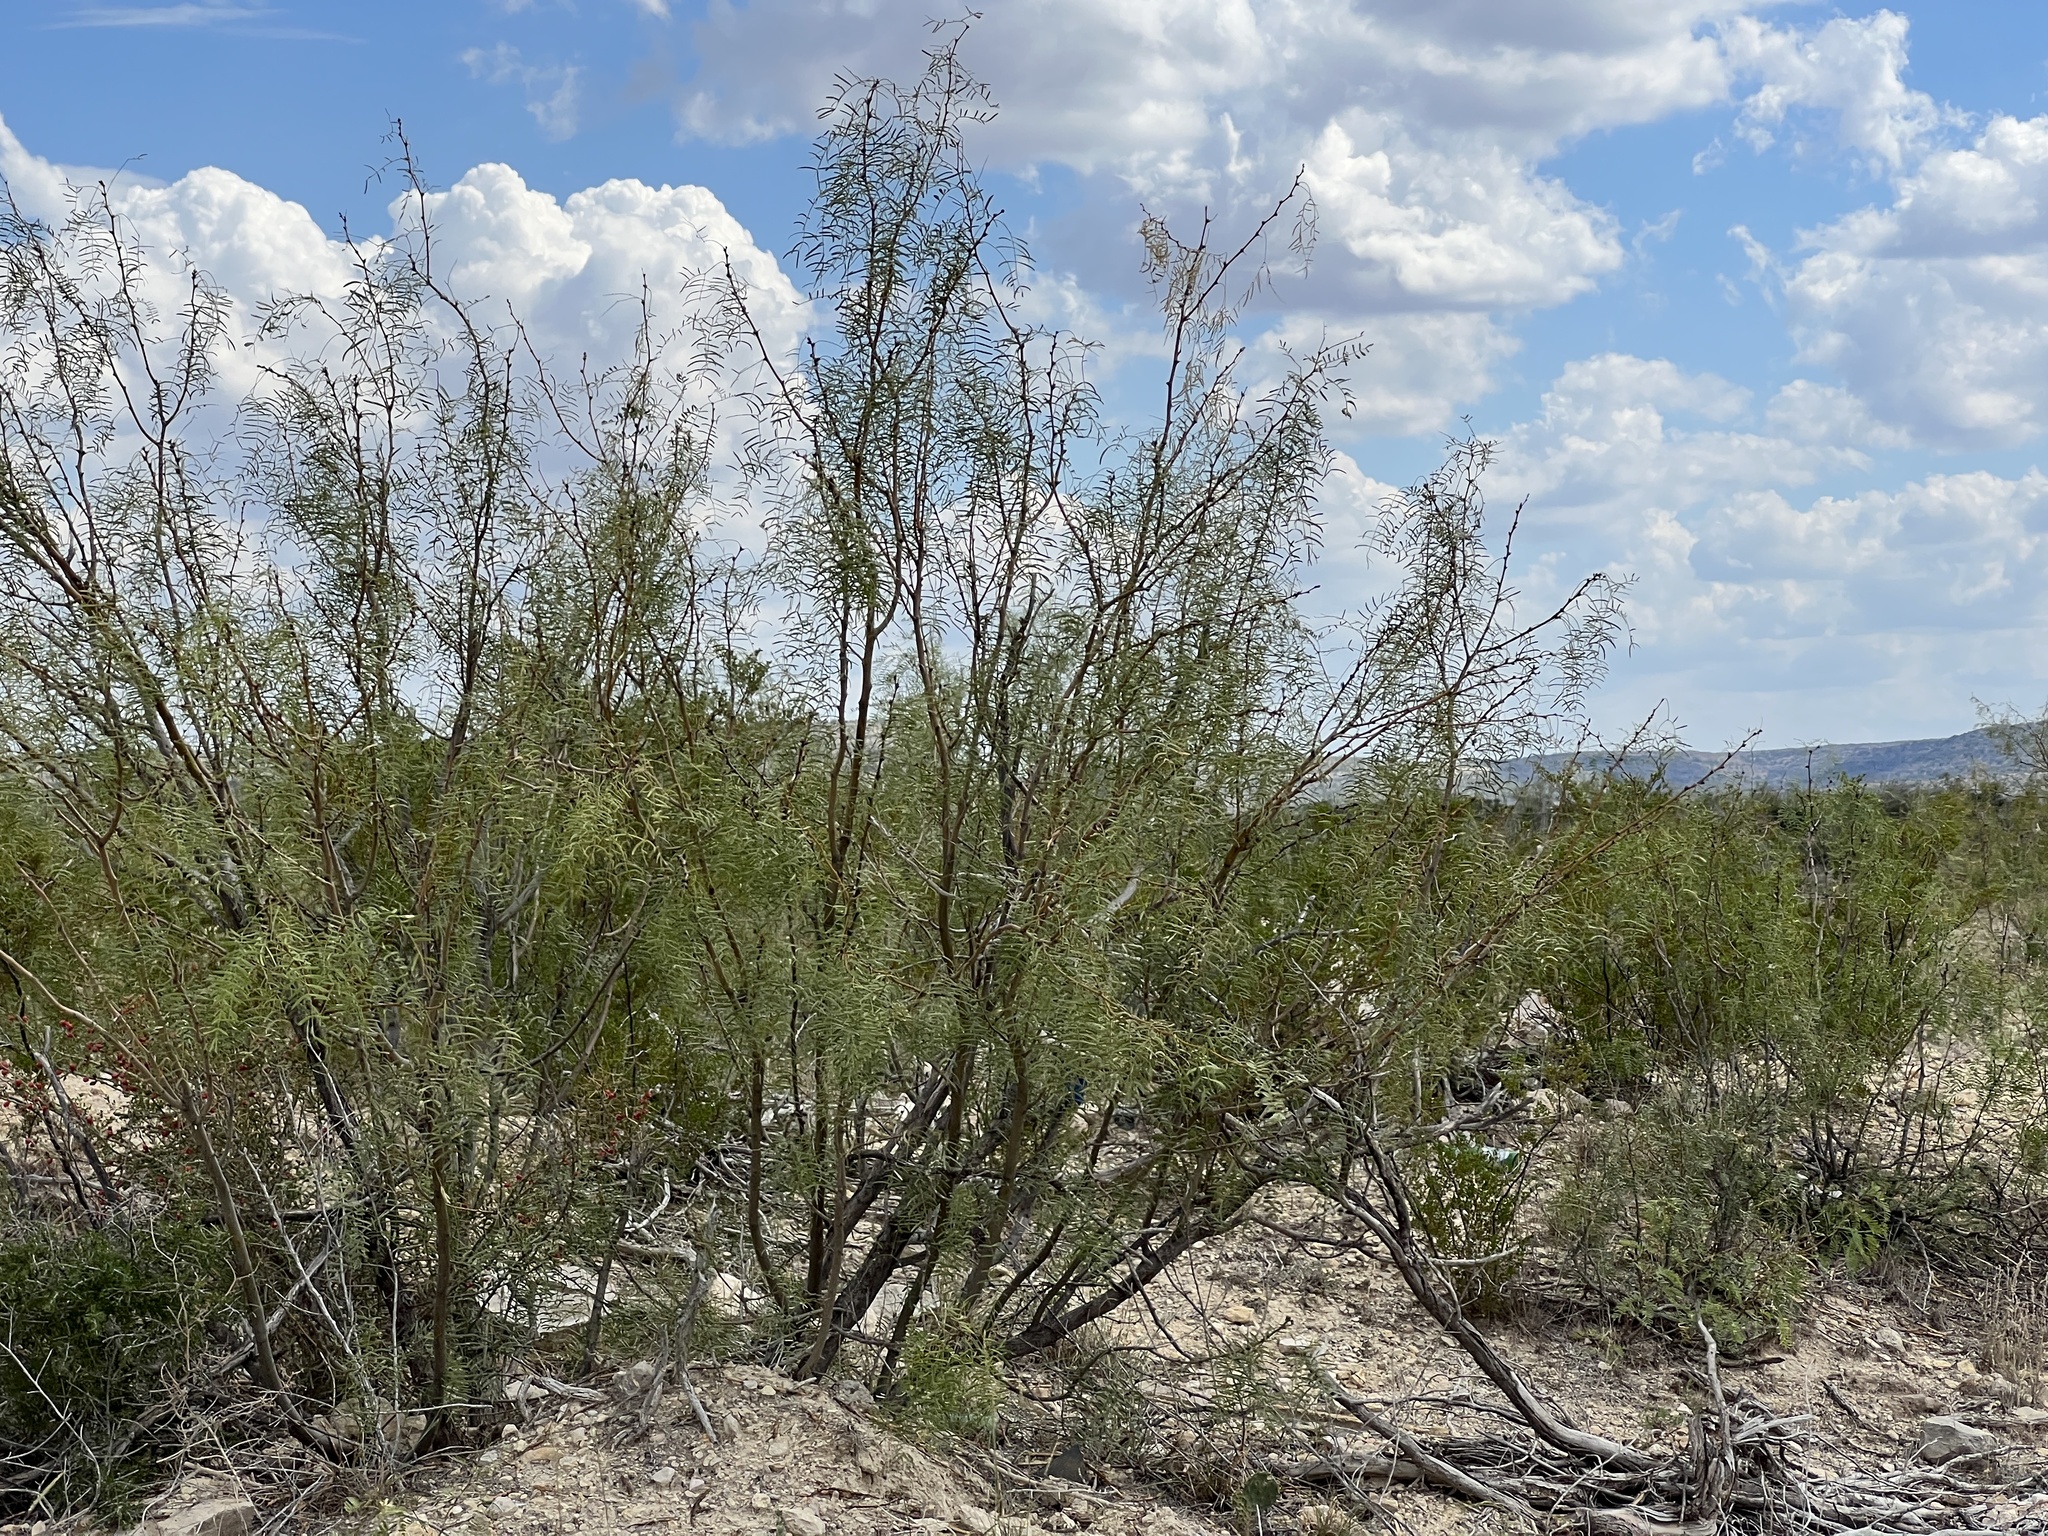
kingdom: Plantae
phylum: Tracheophyta
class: Magnoliopsida
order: Fabales
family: Fabaceae
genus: Prosopis
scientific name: Prosopis glandulosa
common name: Honey mesquite
